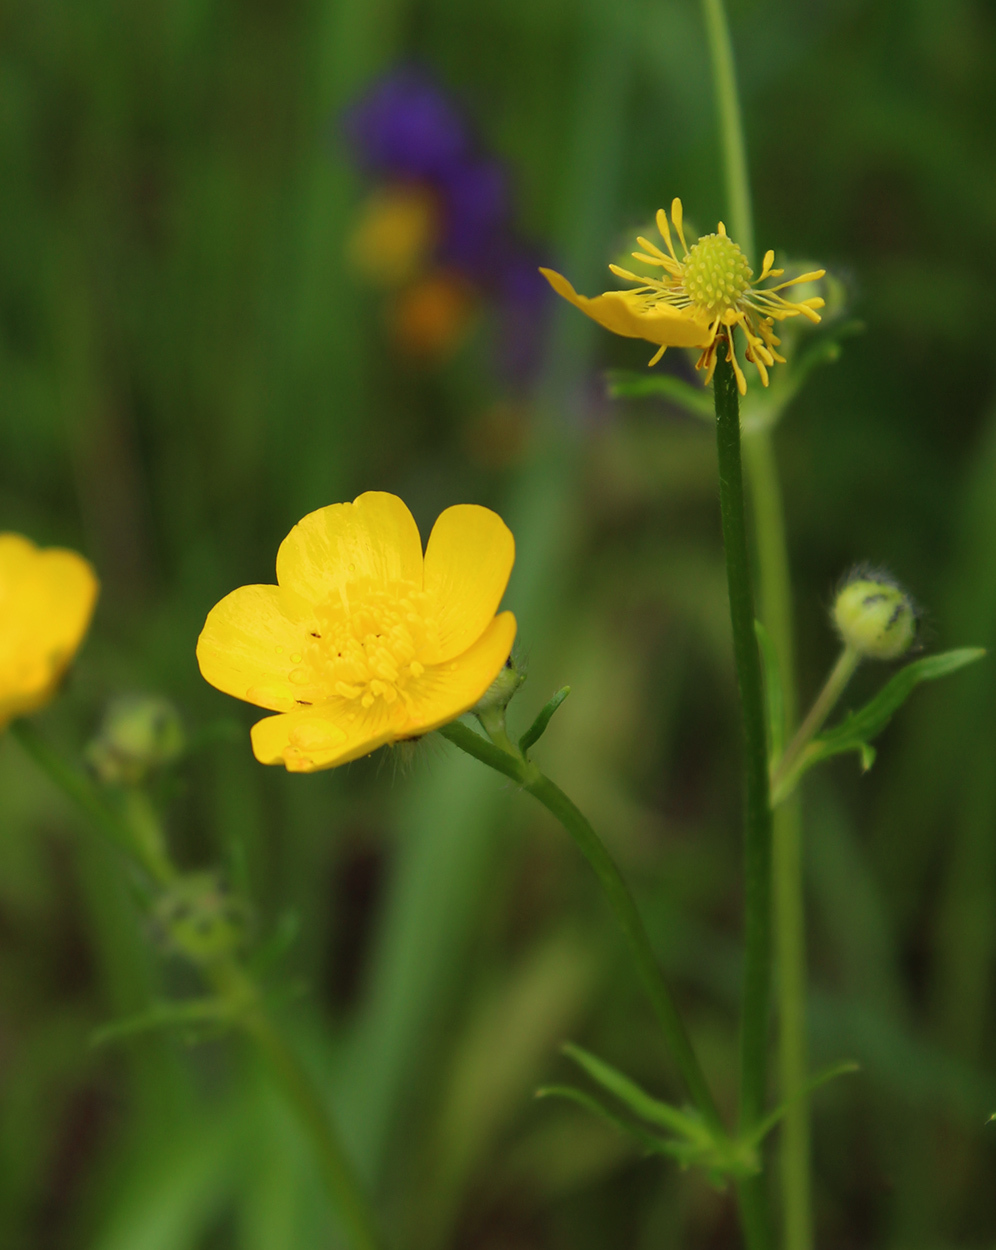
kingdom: Plantae
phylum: Tracheophyta
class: Magnoliopsida
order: Ranunculales
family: Ranunculaceae
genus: Ranunculus
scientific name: Ranunculus polyanthemos
